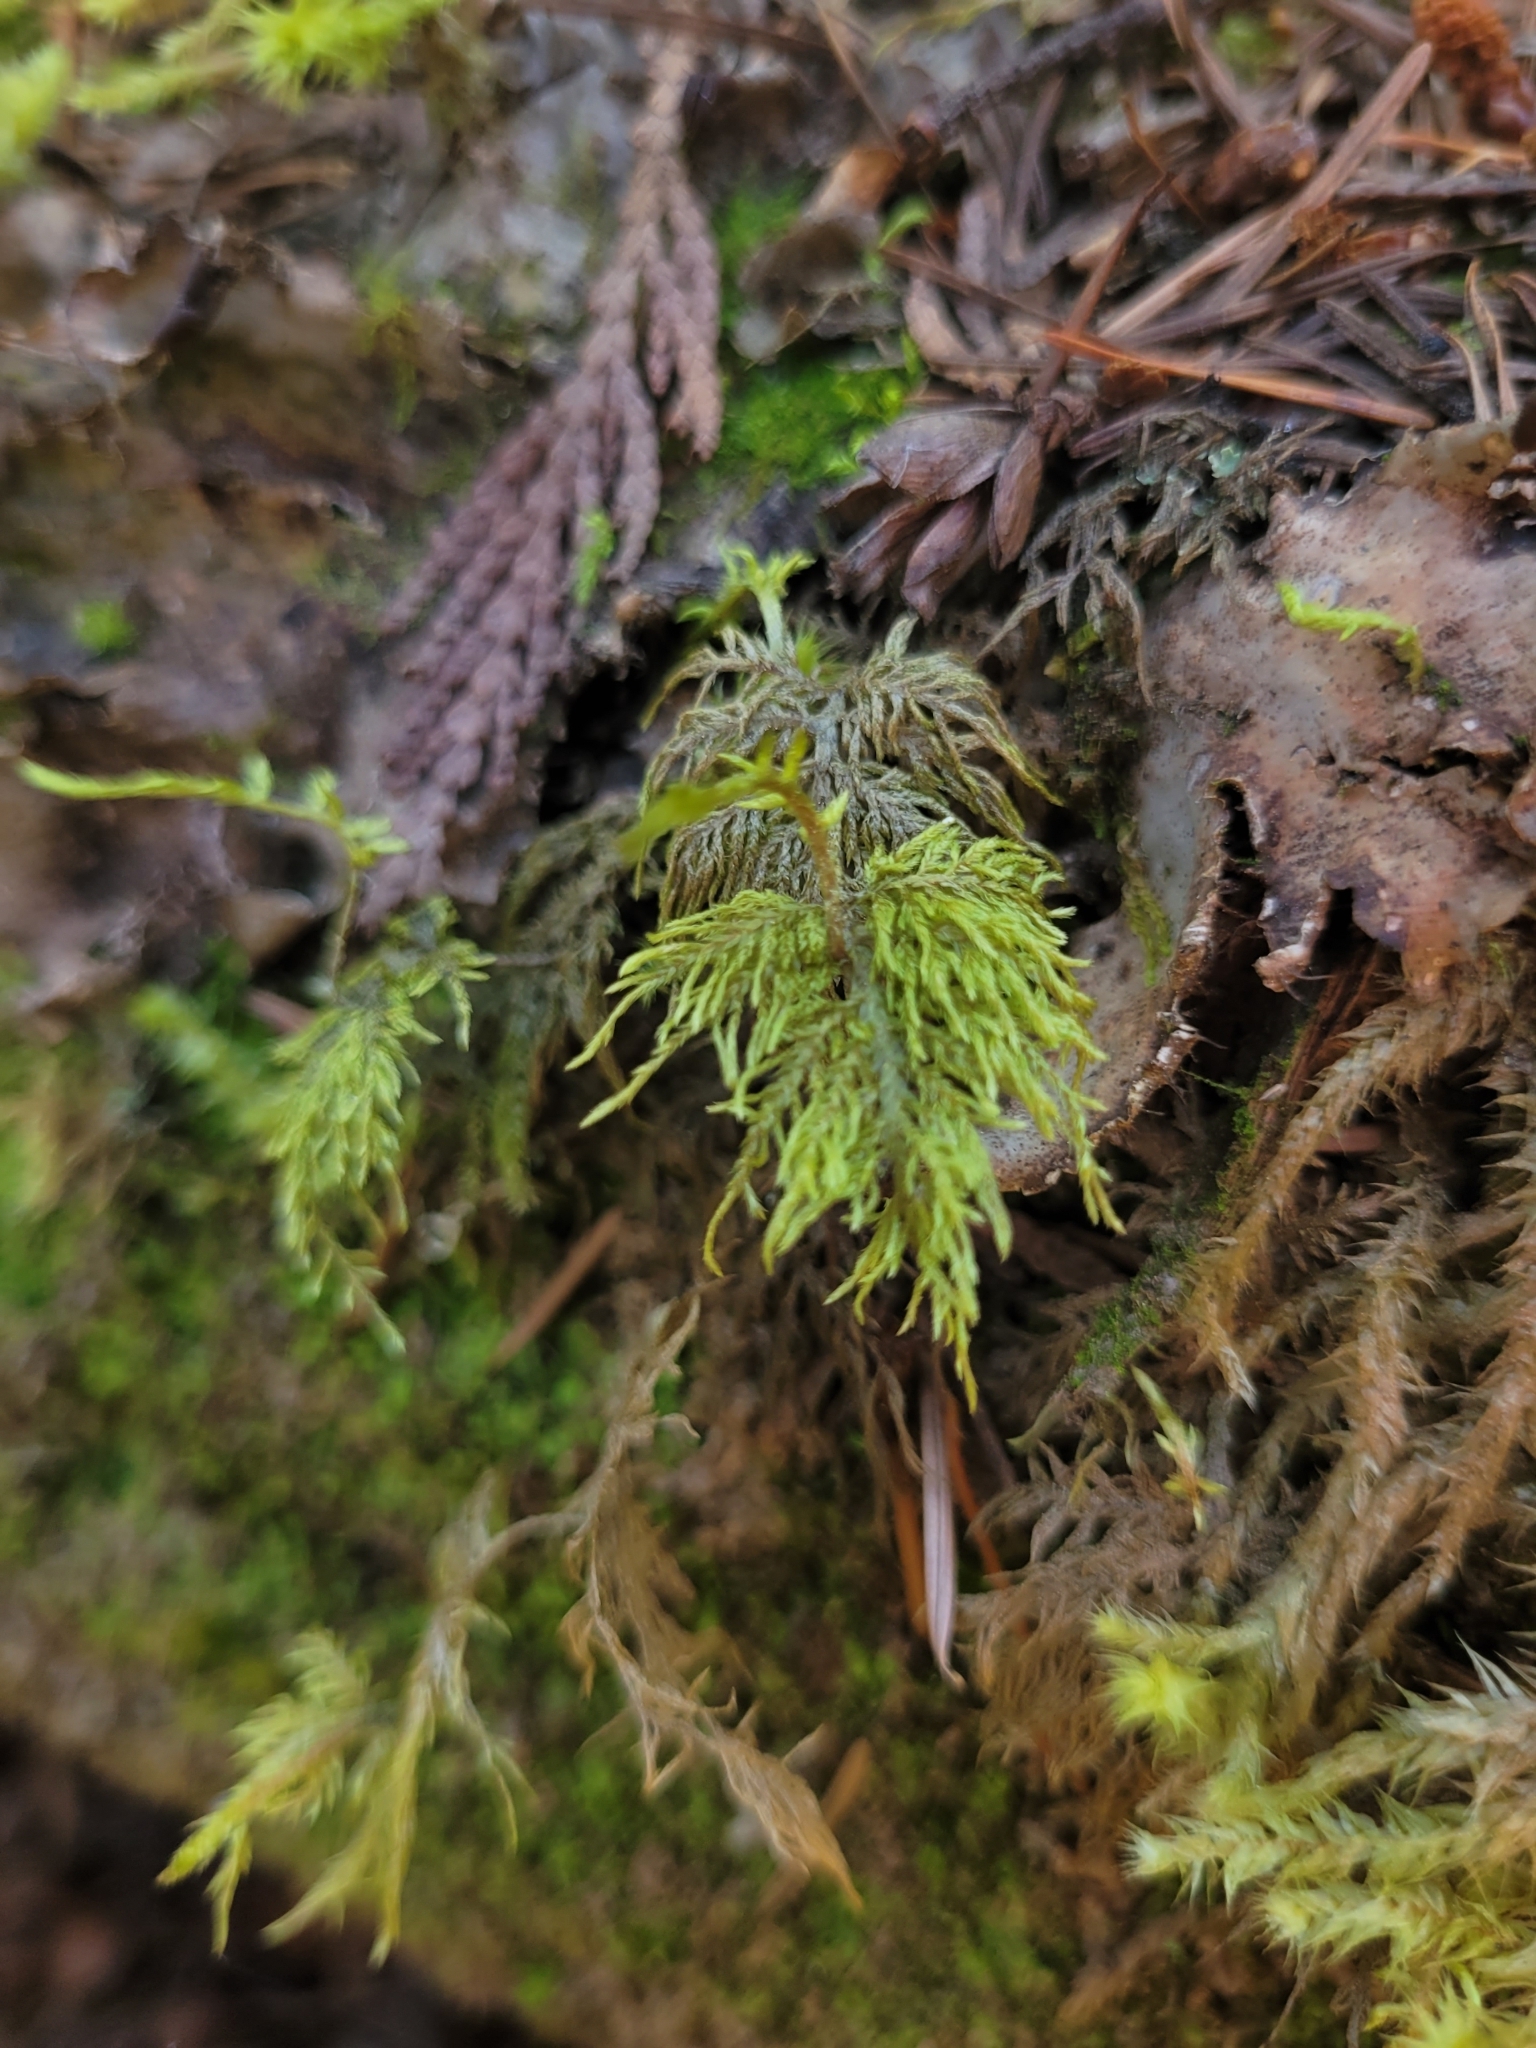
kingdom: Plantae
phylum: Bryophyta
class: Bryopsida
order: Hypnales
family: Hylocomiaceae
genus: Hylocomium
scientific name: Hylocomium splendens
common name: Stairstep moss
